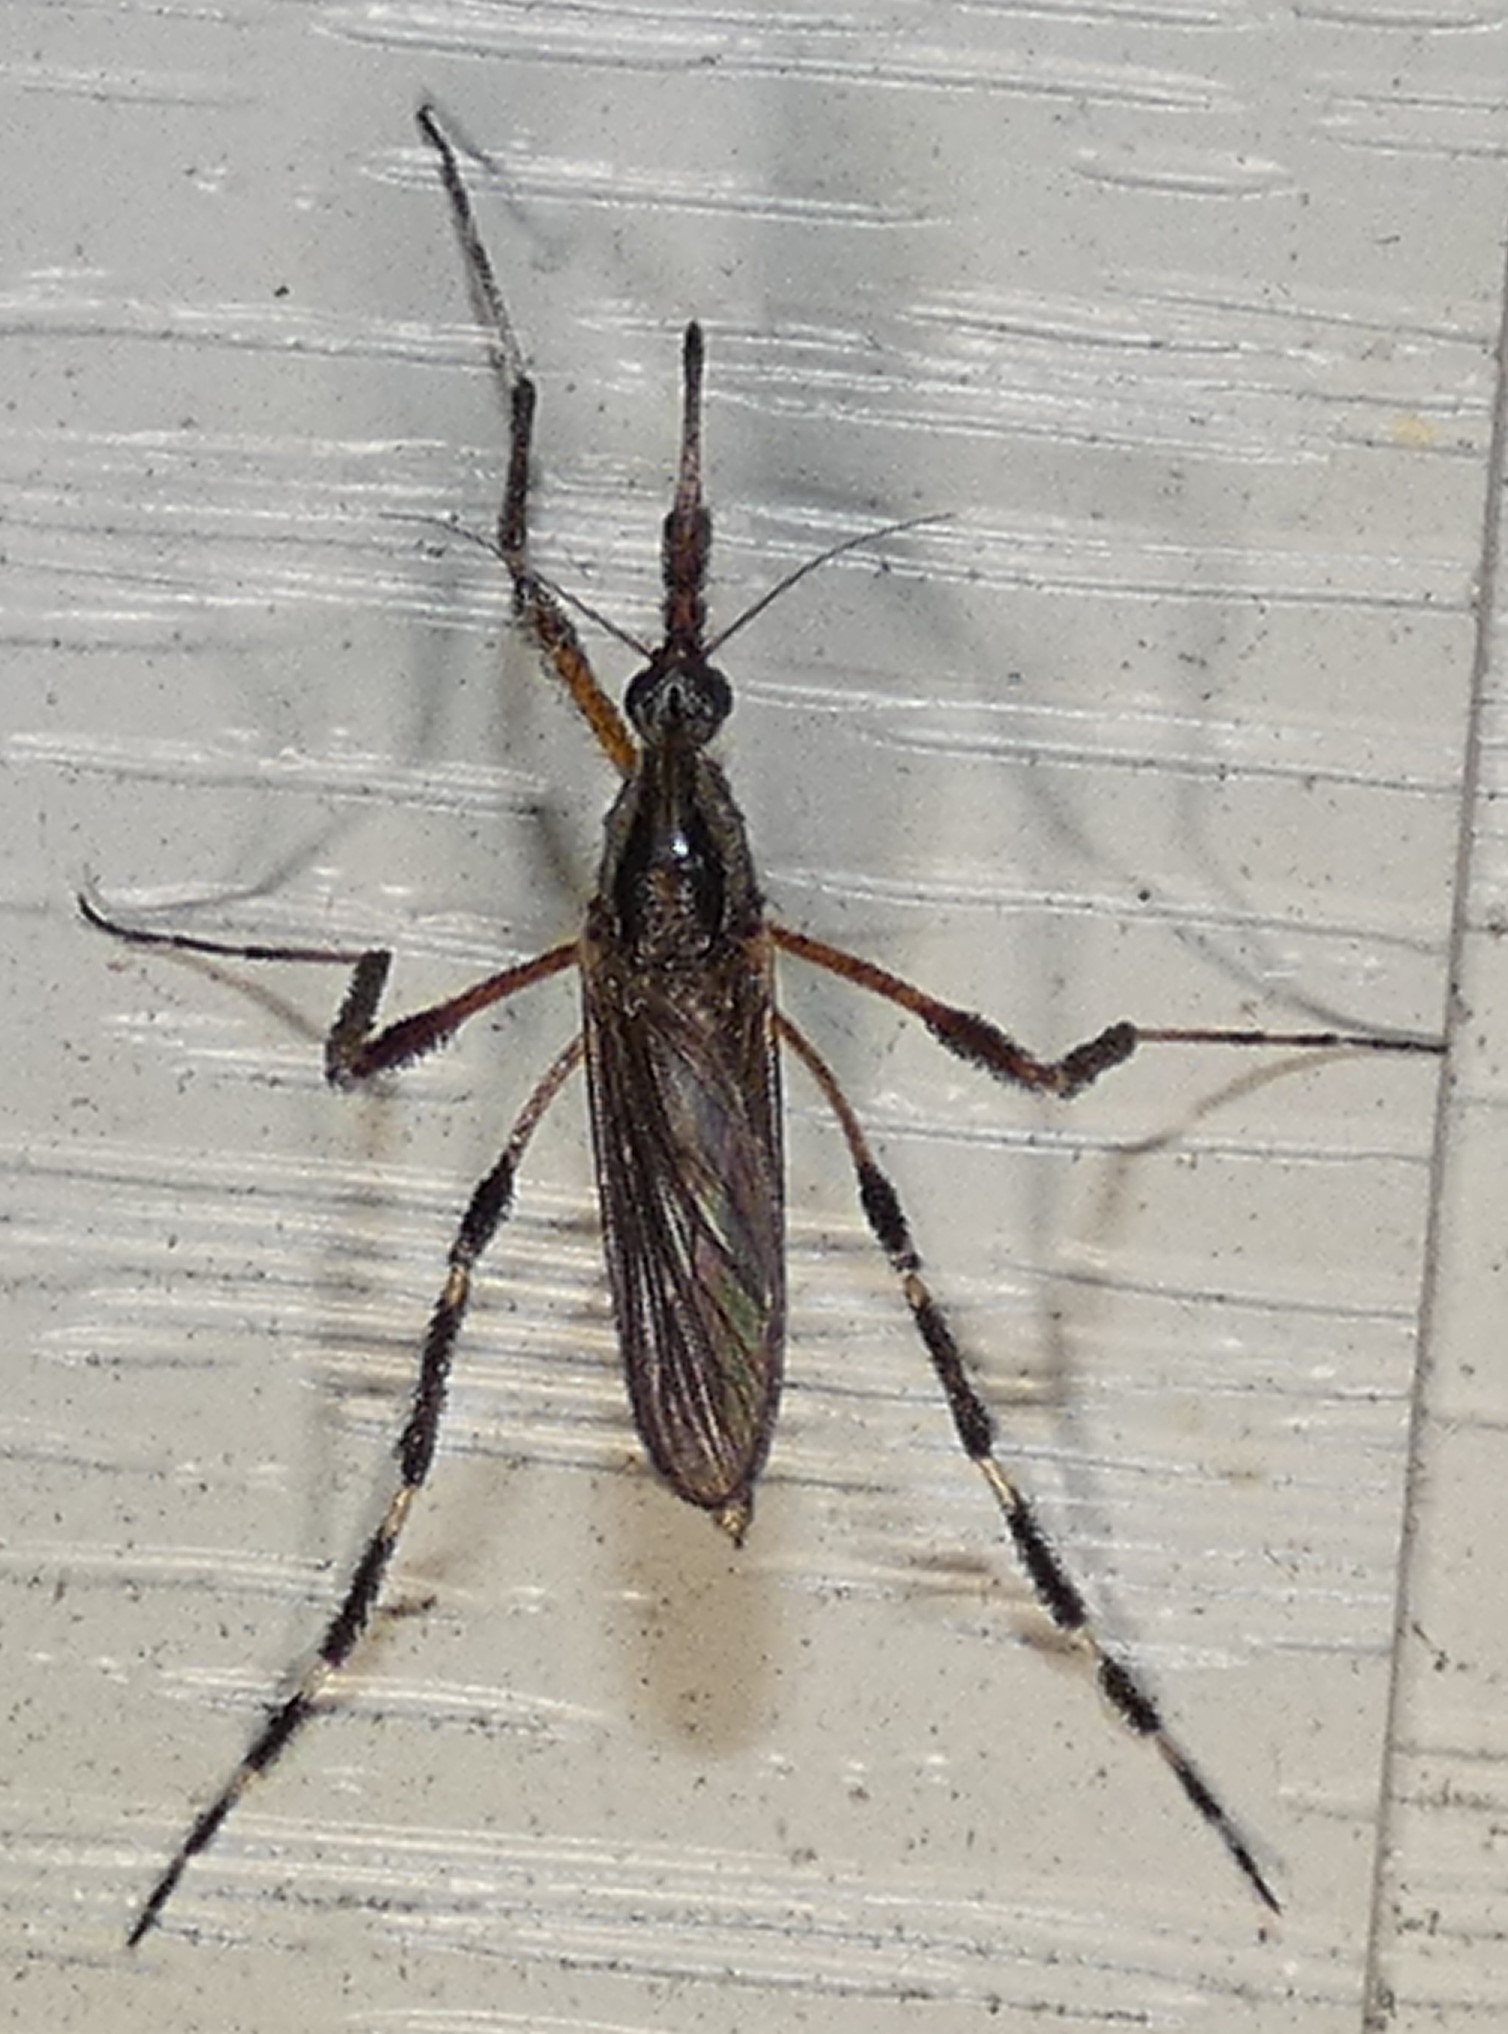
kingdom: Animalia
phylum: Arthropoda
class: Insecta
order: Diptera
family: Culicidae
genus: Psorophora
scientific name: Psorophora ciliata
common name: Gallinipper
